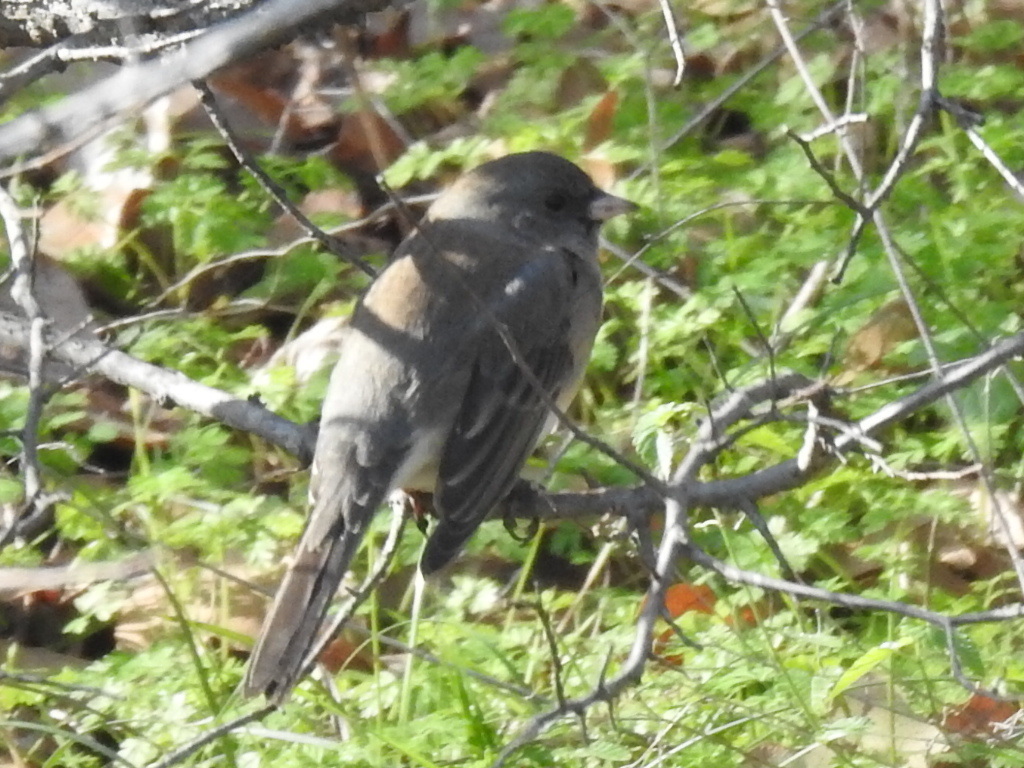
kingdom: Animalia
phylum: Chordata
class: Aves
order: Passeriformes
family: Passerellidae
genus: Junco
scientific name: Junco hyemalis
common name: Dark-eyed junco
